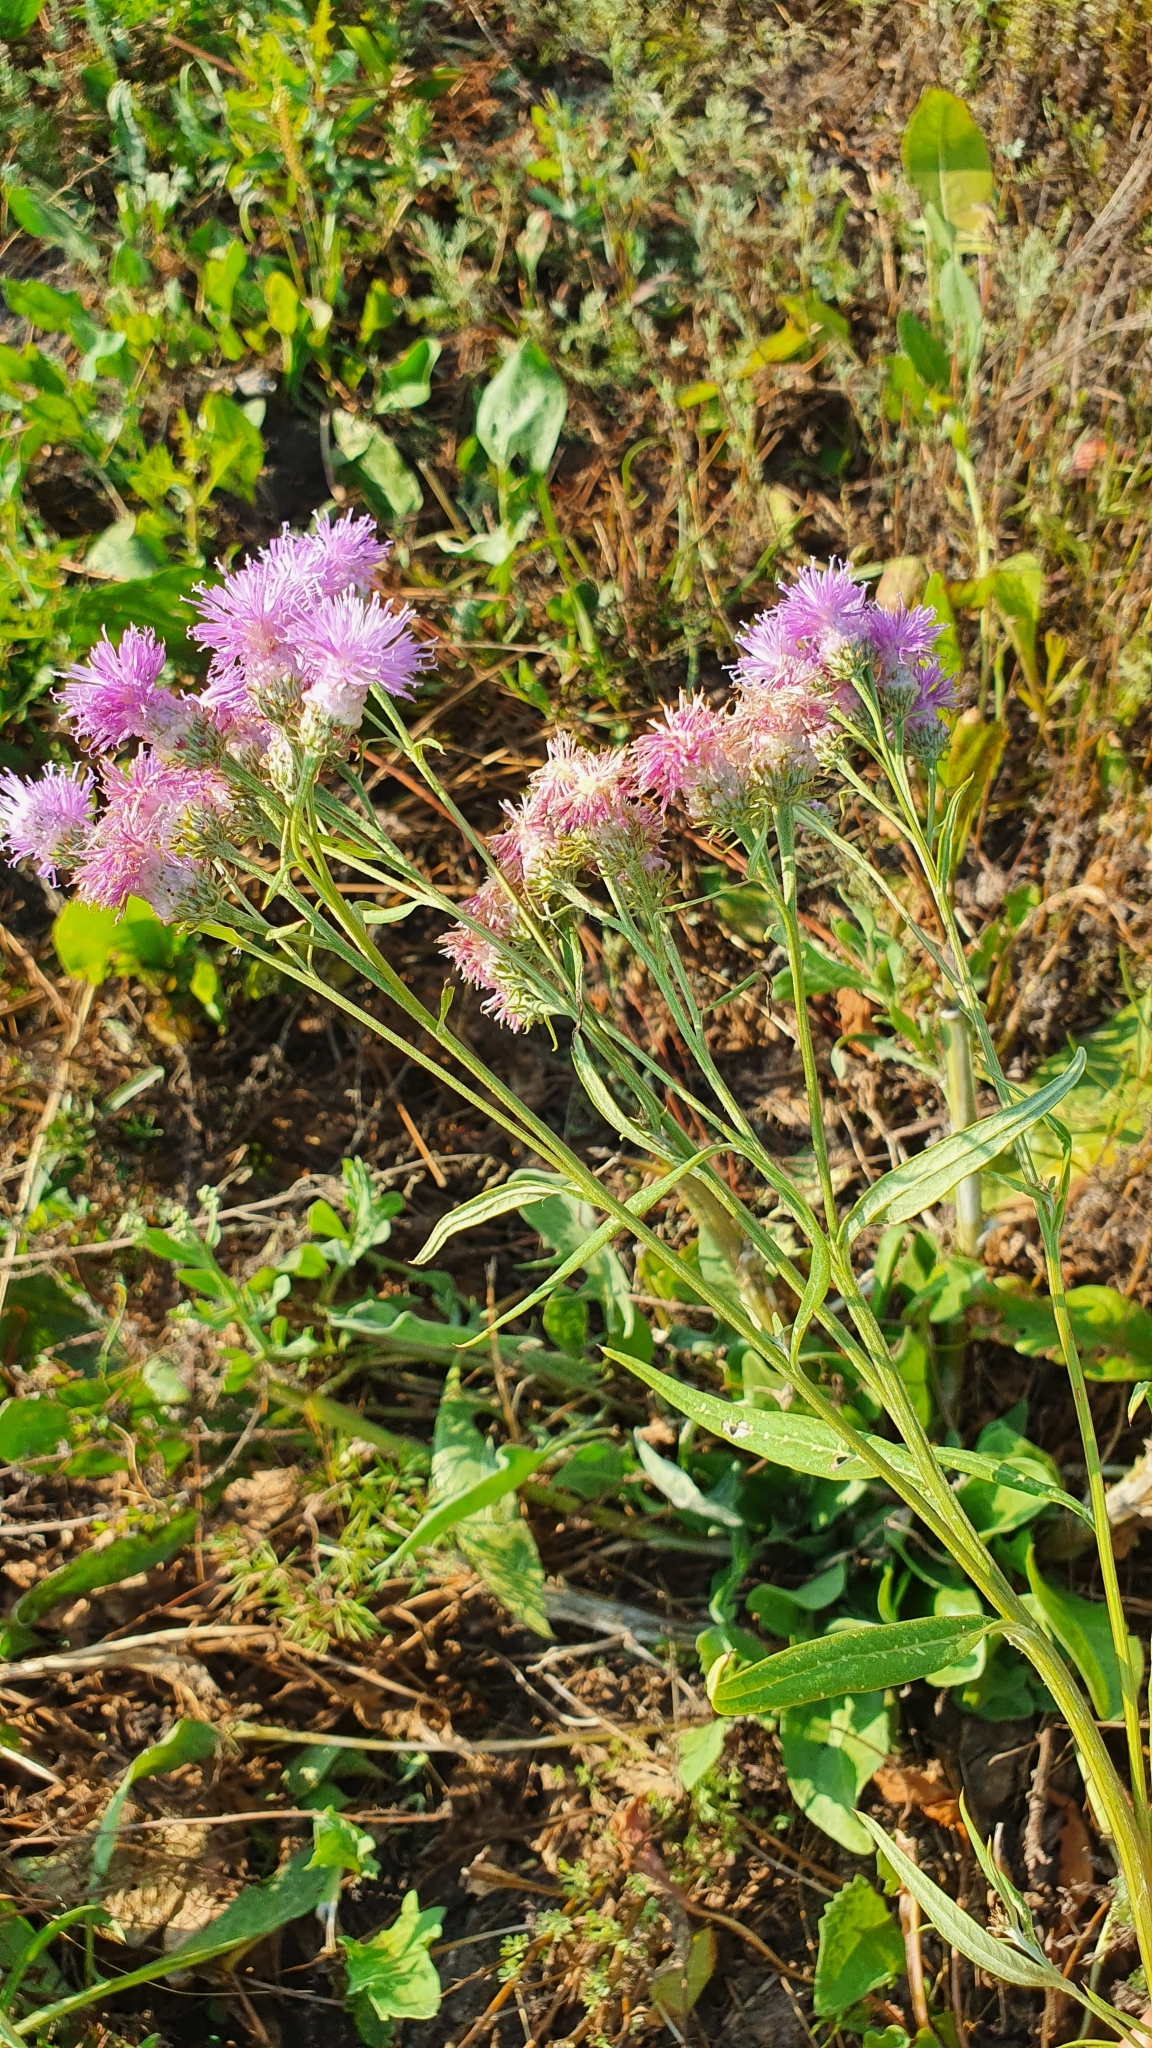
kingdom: Plantae
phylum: Tracheophyta
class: Magnoliopsida
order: Asterales
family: Asteraceae
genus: Saussurea
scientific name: Saussurea amara
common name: Alberta sawwort
